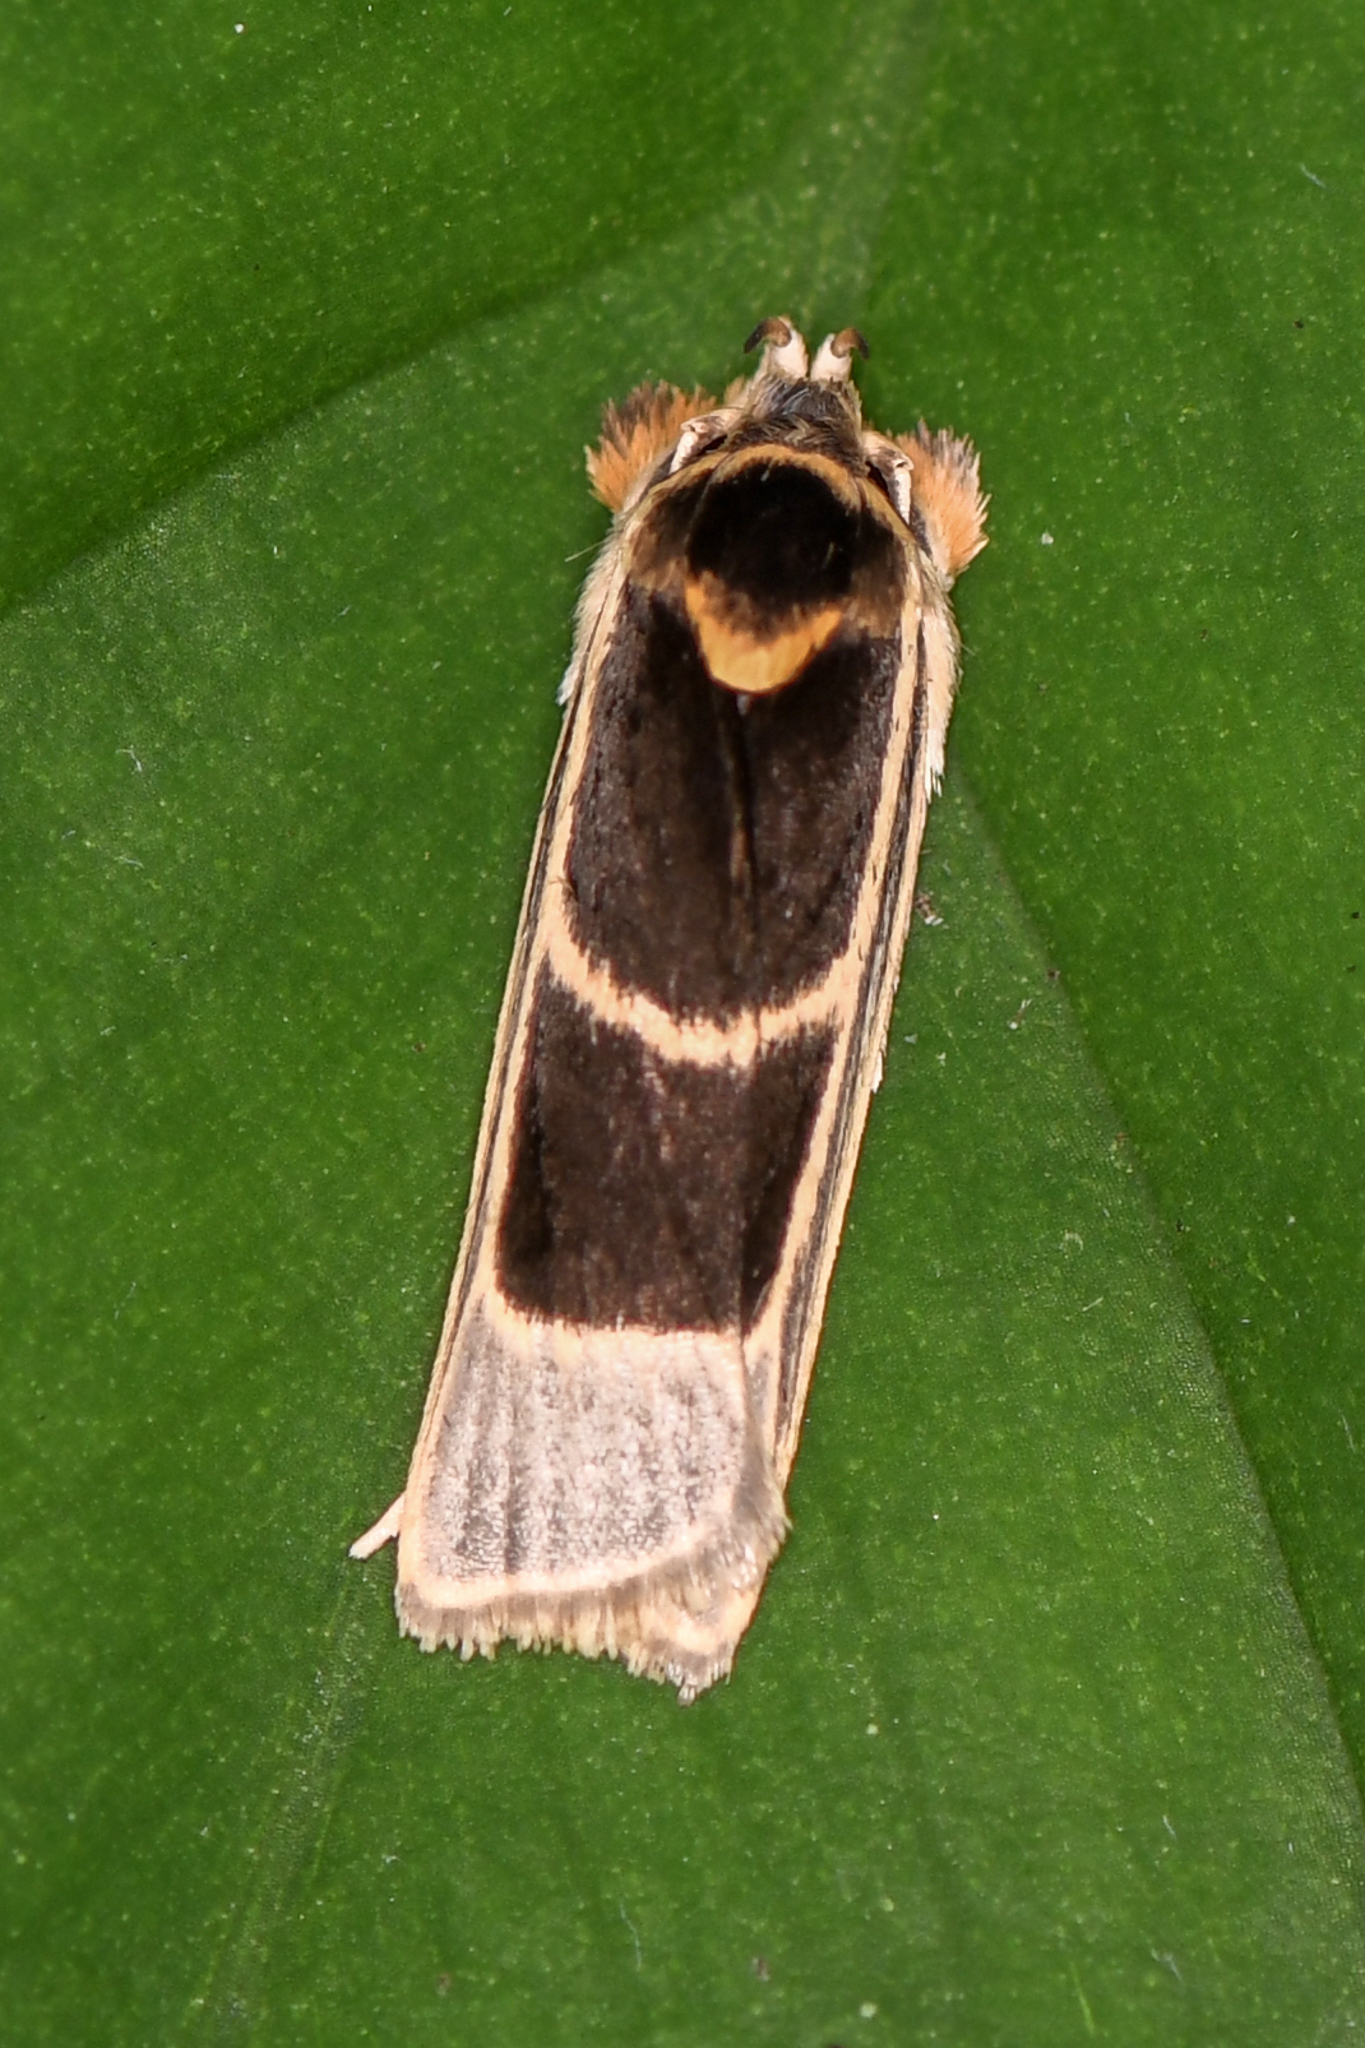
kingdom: Animalia
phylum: Arthropoda
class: Insecta
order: Lepidoptera
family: Depressariidae
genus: Antaeotricha
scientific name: Antaeotricha renselariana
